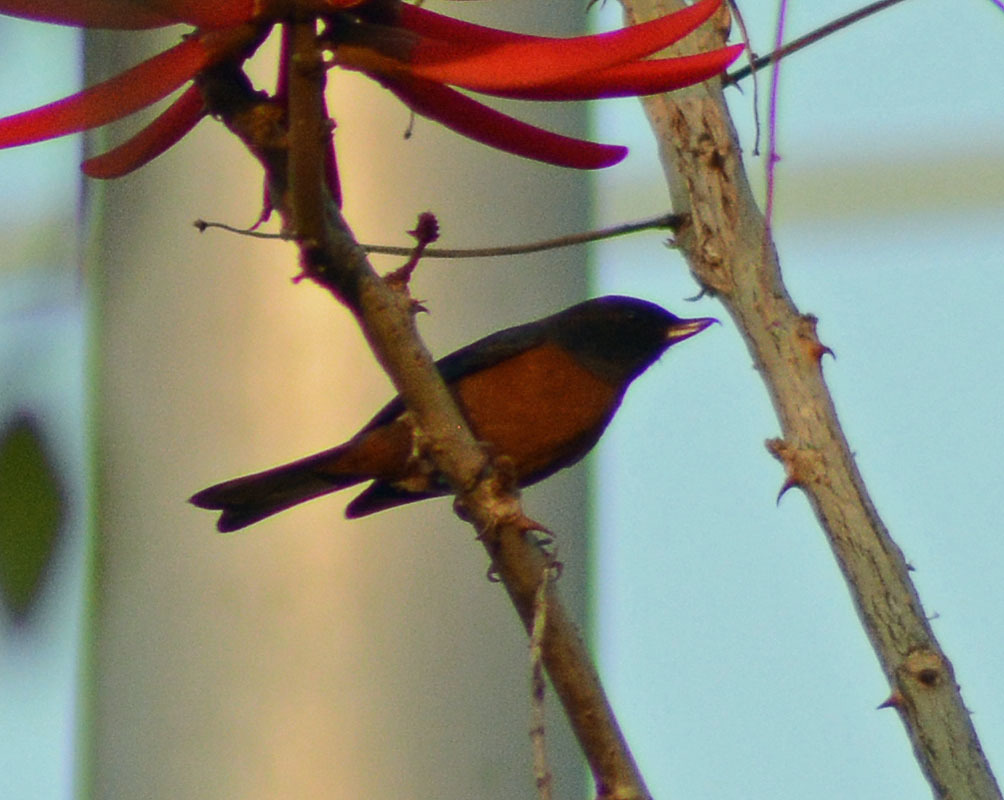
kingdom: Animalia
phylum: Chordata
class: Aves
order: Passeriformes
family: Thraupidae
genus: Diglossa
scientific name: Diglossa baritula
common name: Cinnamon-bellied flowerpiercer
